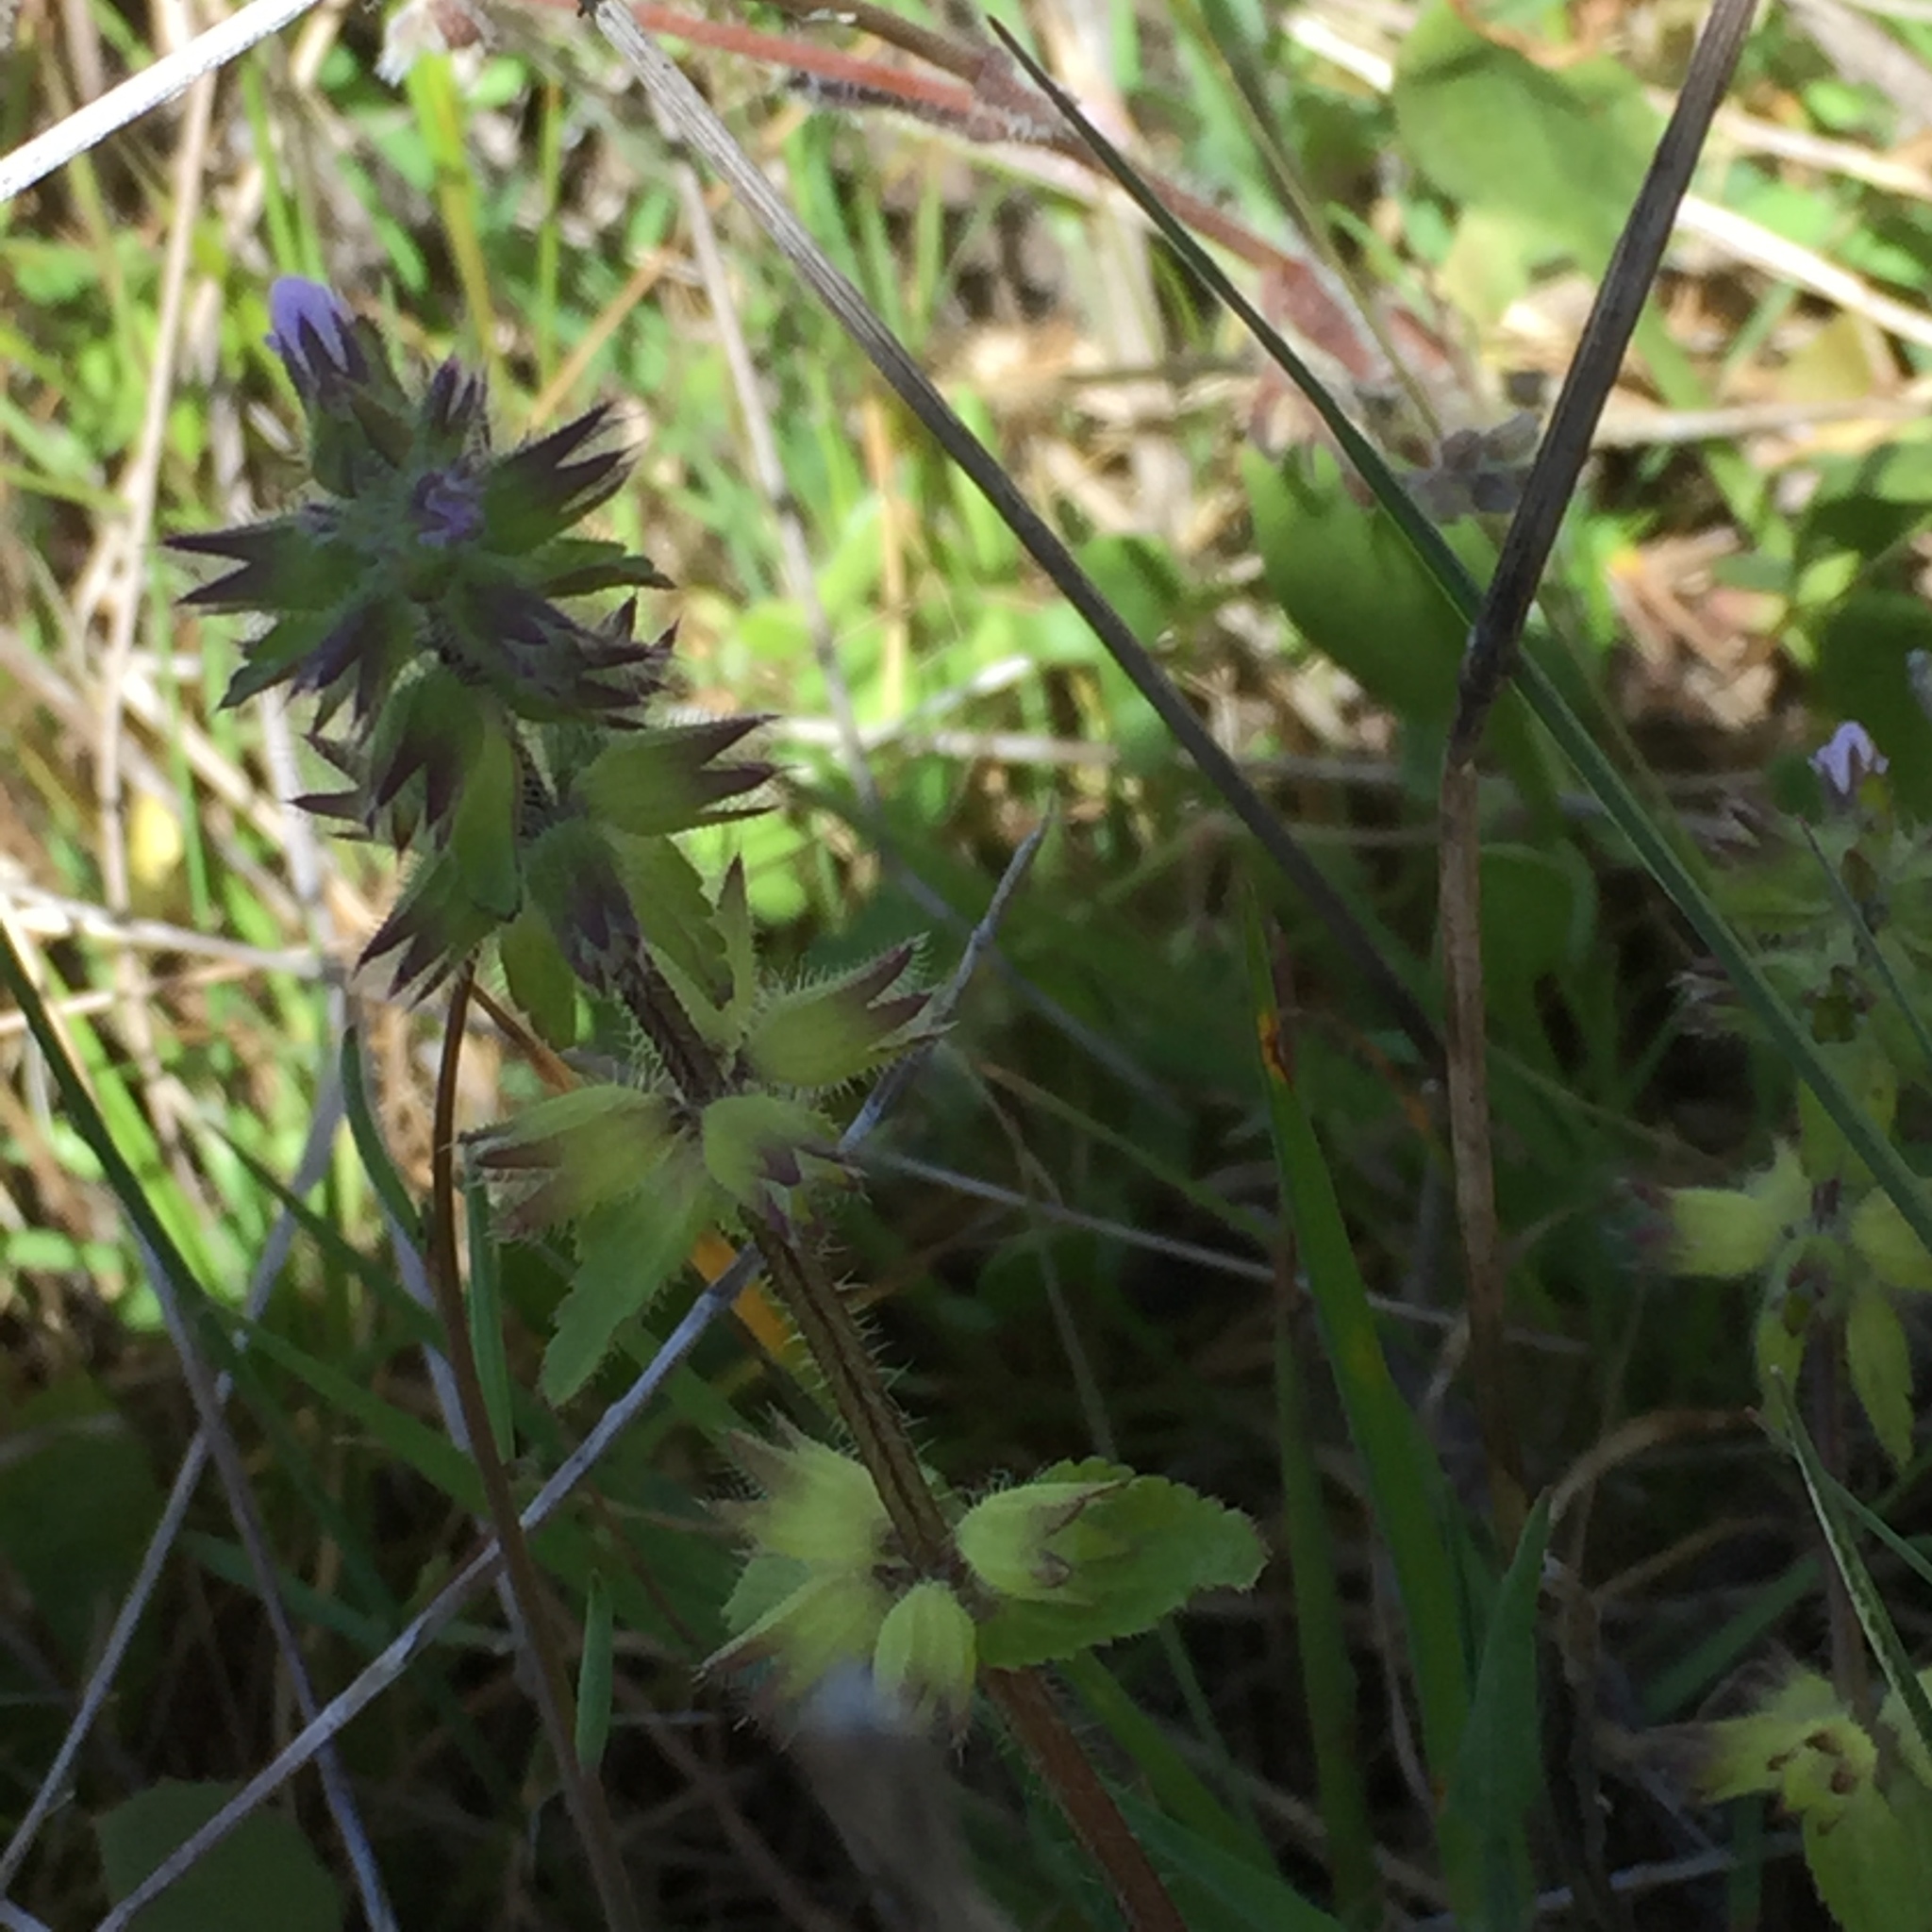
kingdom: Plantae
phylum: Tracheophyta
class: Magnoliopsida
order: Lamiales
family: Lamiaceae
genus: Stachys
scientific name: Stachys arvensis
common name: Field woundwort
